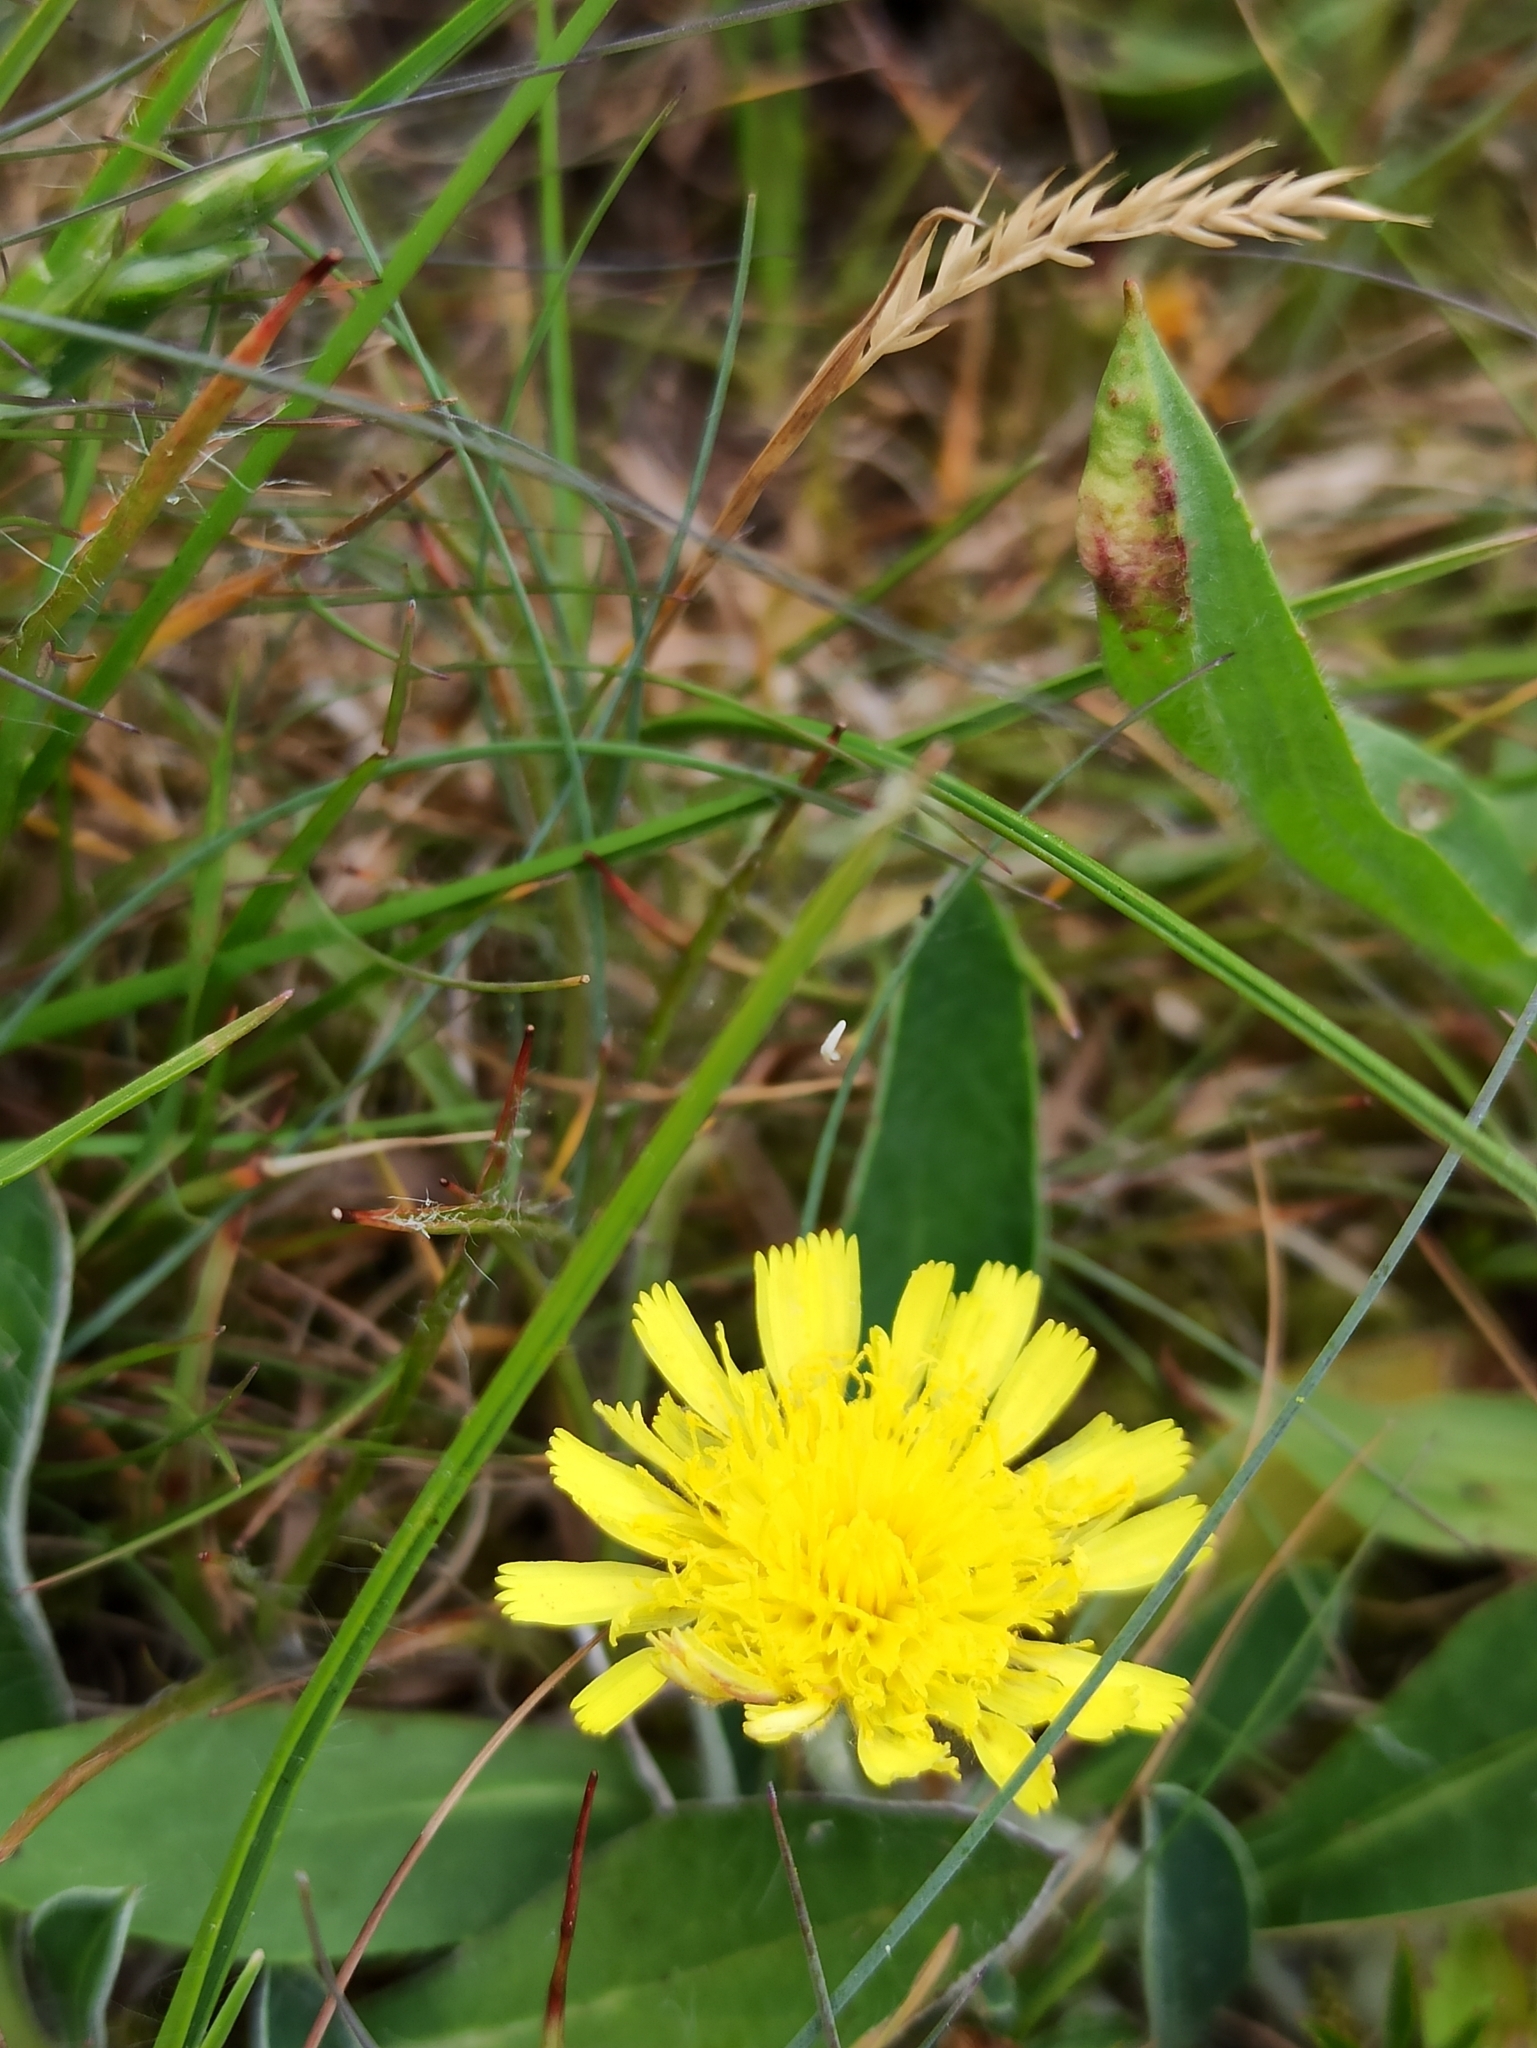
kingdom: Plantae
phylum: Tracheophyta
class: Magnoliopsida
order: Asterales
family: Asteraceae
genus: Pilosella
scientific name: Pilosella officinarum
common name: Mouse-ear hawkweed
